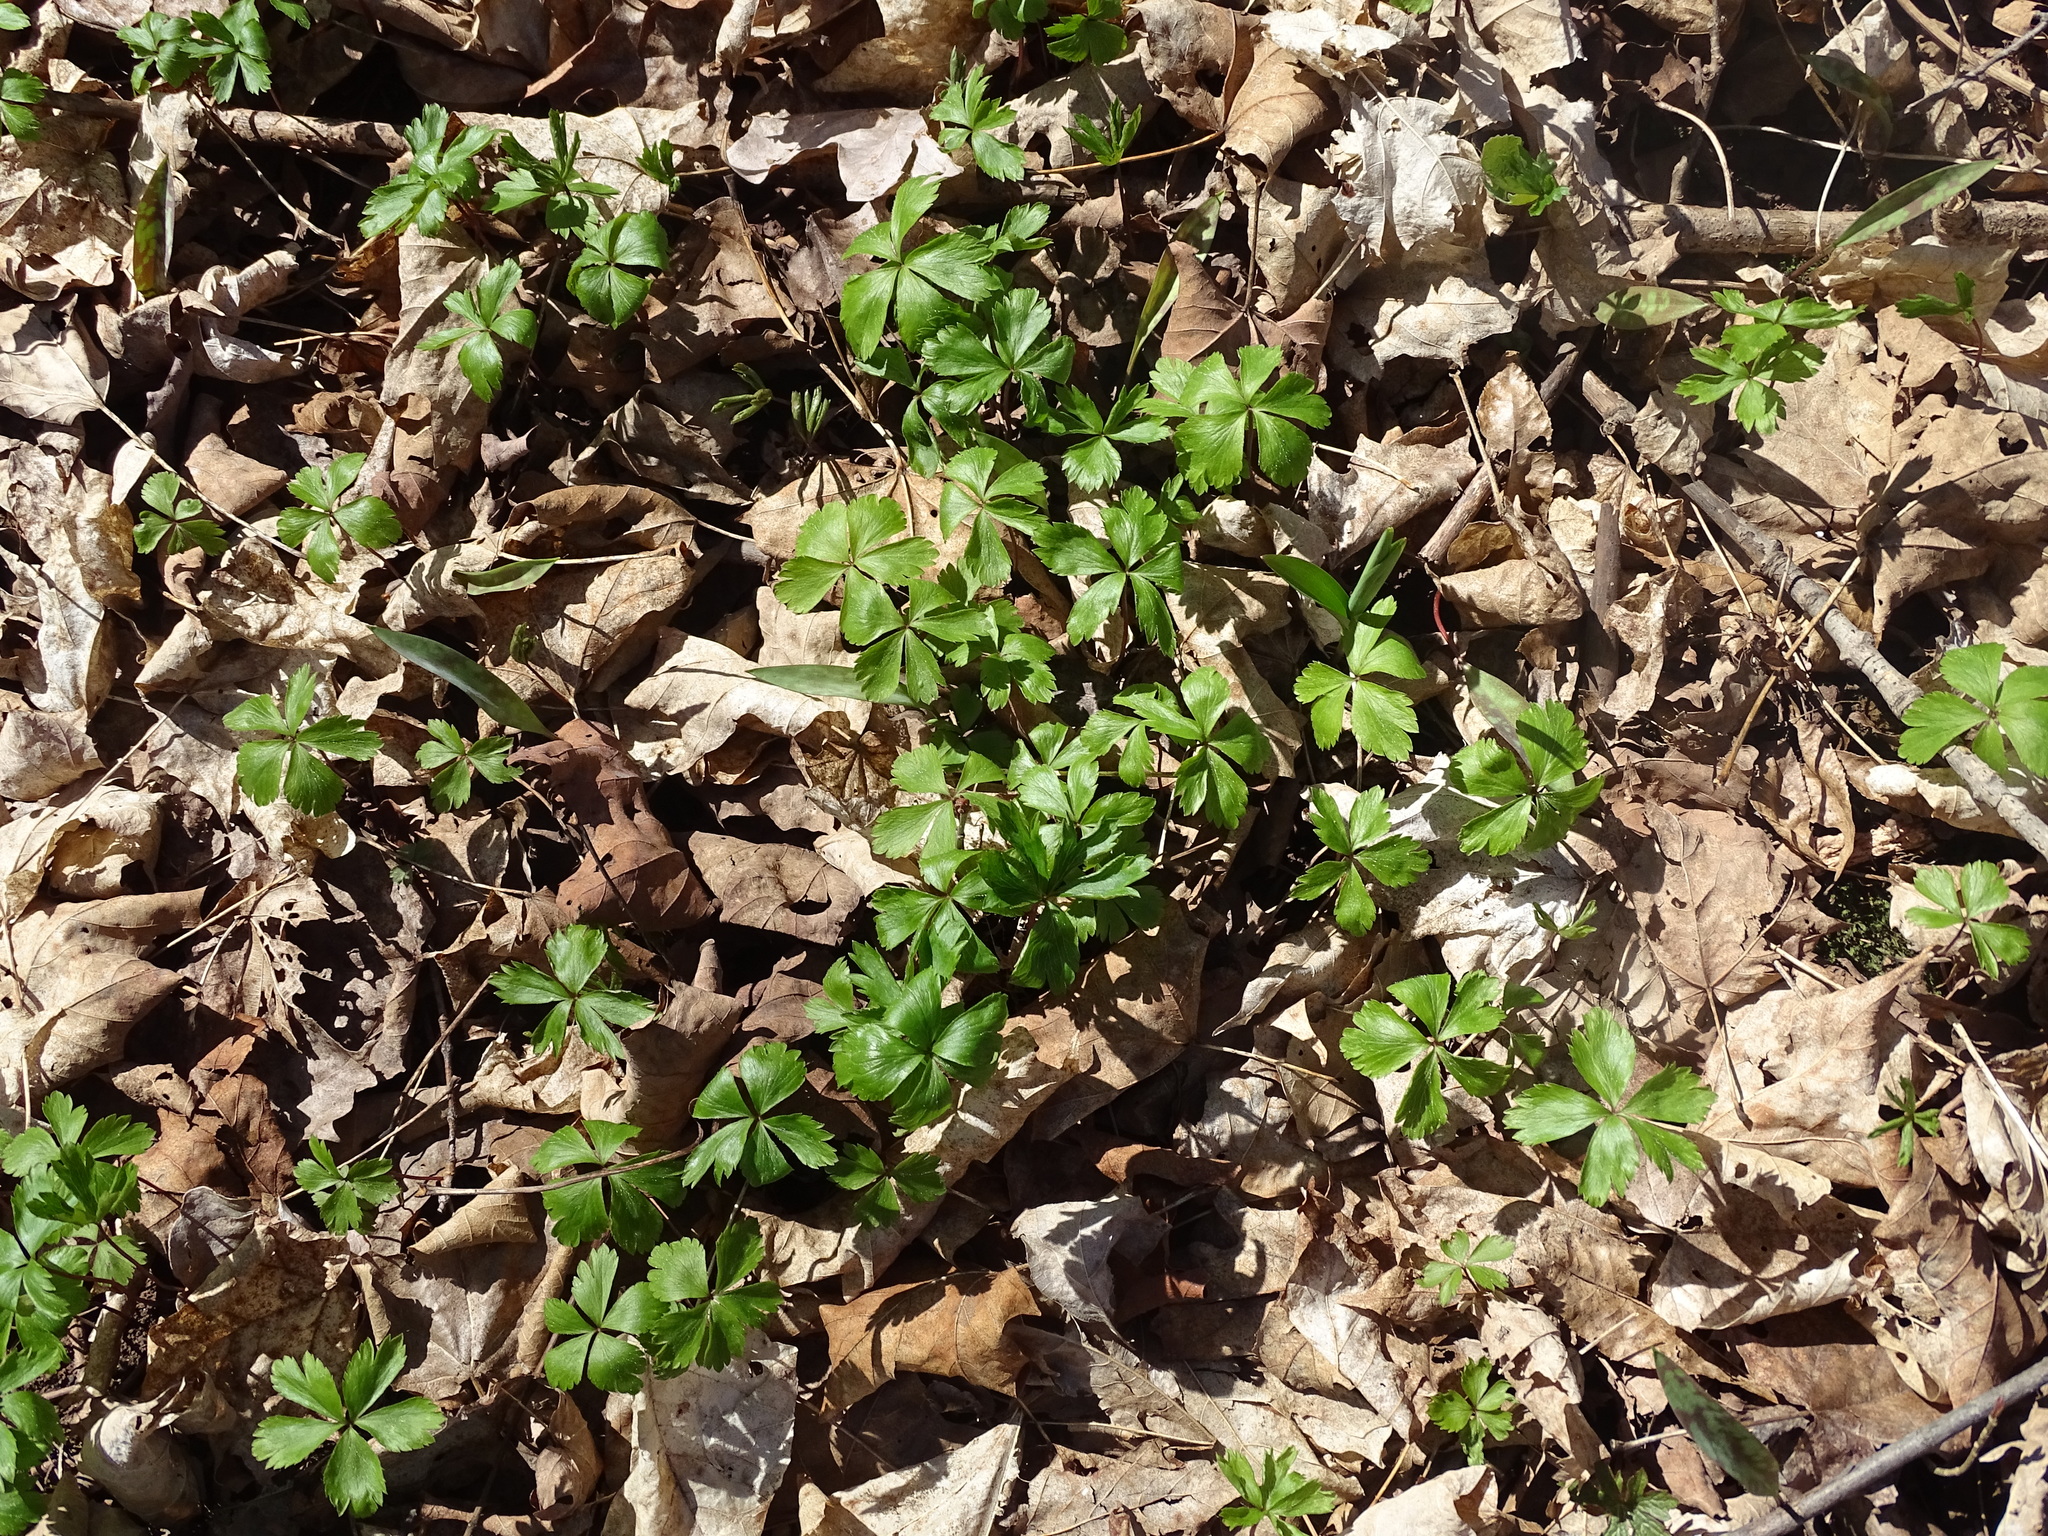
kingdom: Plantae
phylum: Tracheophyta
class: Magnoliopsida
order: Ranunculales
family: Ranunculaceae
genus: Anemone
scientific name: Anemone quinquefolia
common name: Wood anemone
